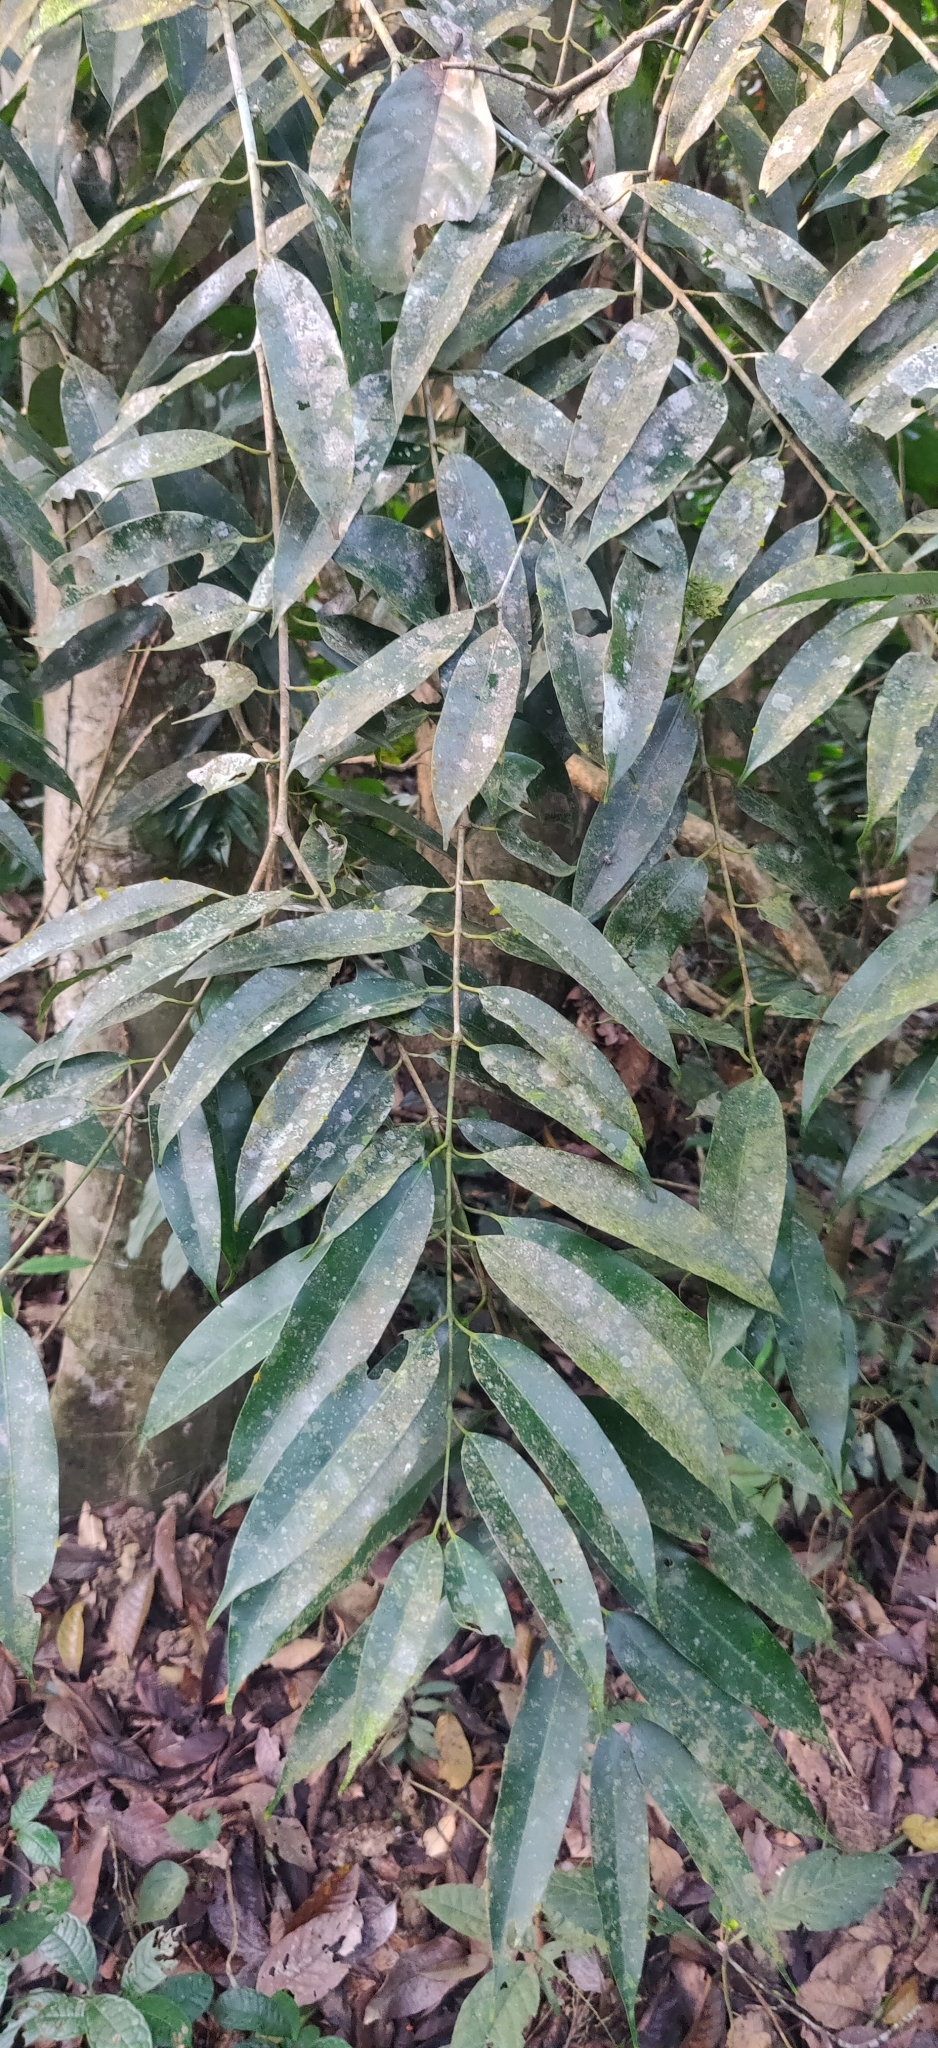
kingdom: Plantae
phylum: Tracheophyta
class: Magnoliopsida
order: Malpighiales
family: Calophyllaceae
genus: Mesua
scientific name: Mesua ferrea
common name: Mesua
